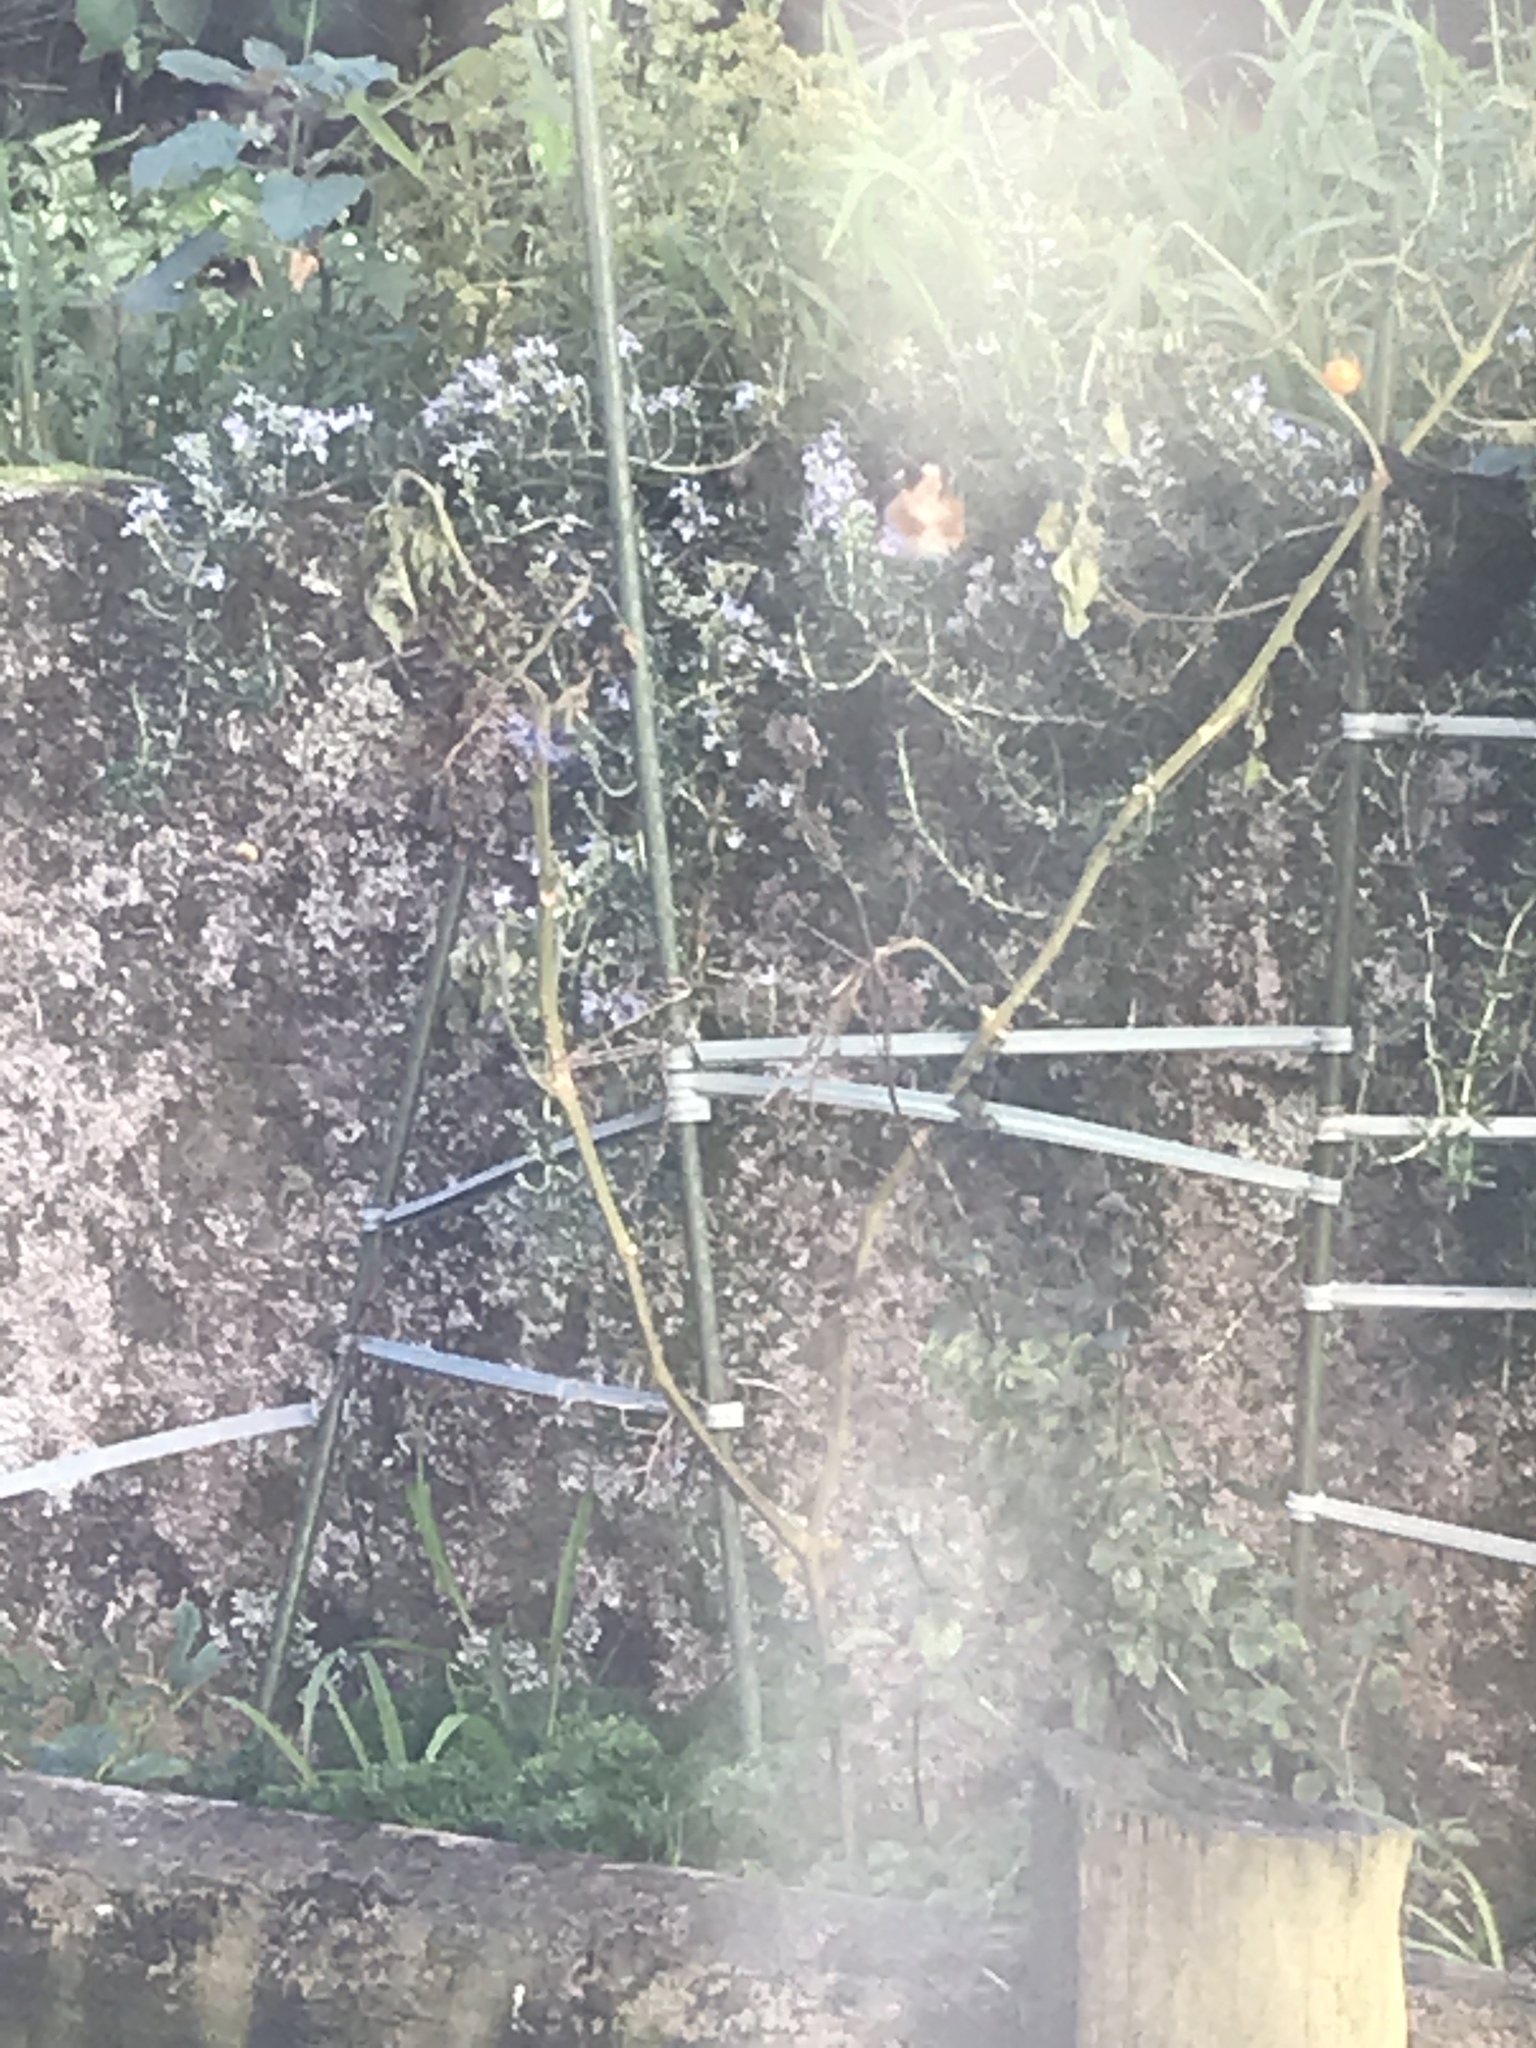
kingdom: Animalia
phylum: Chordata
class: Aves
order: Passeriformes
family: Fringillidae
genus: Carduelis
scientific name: Carduelis carduelis
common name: European goldfinch
